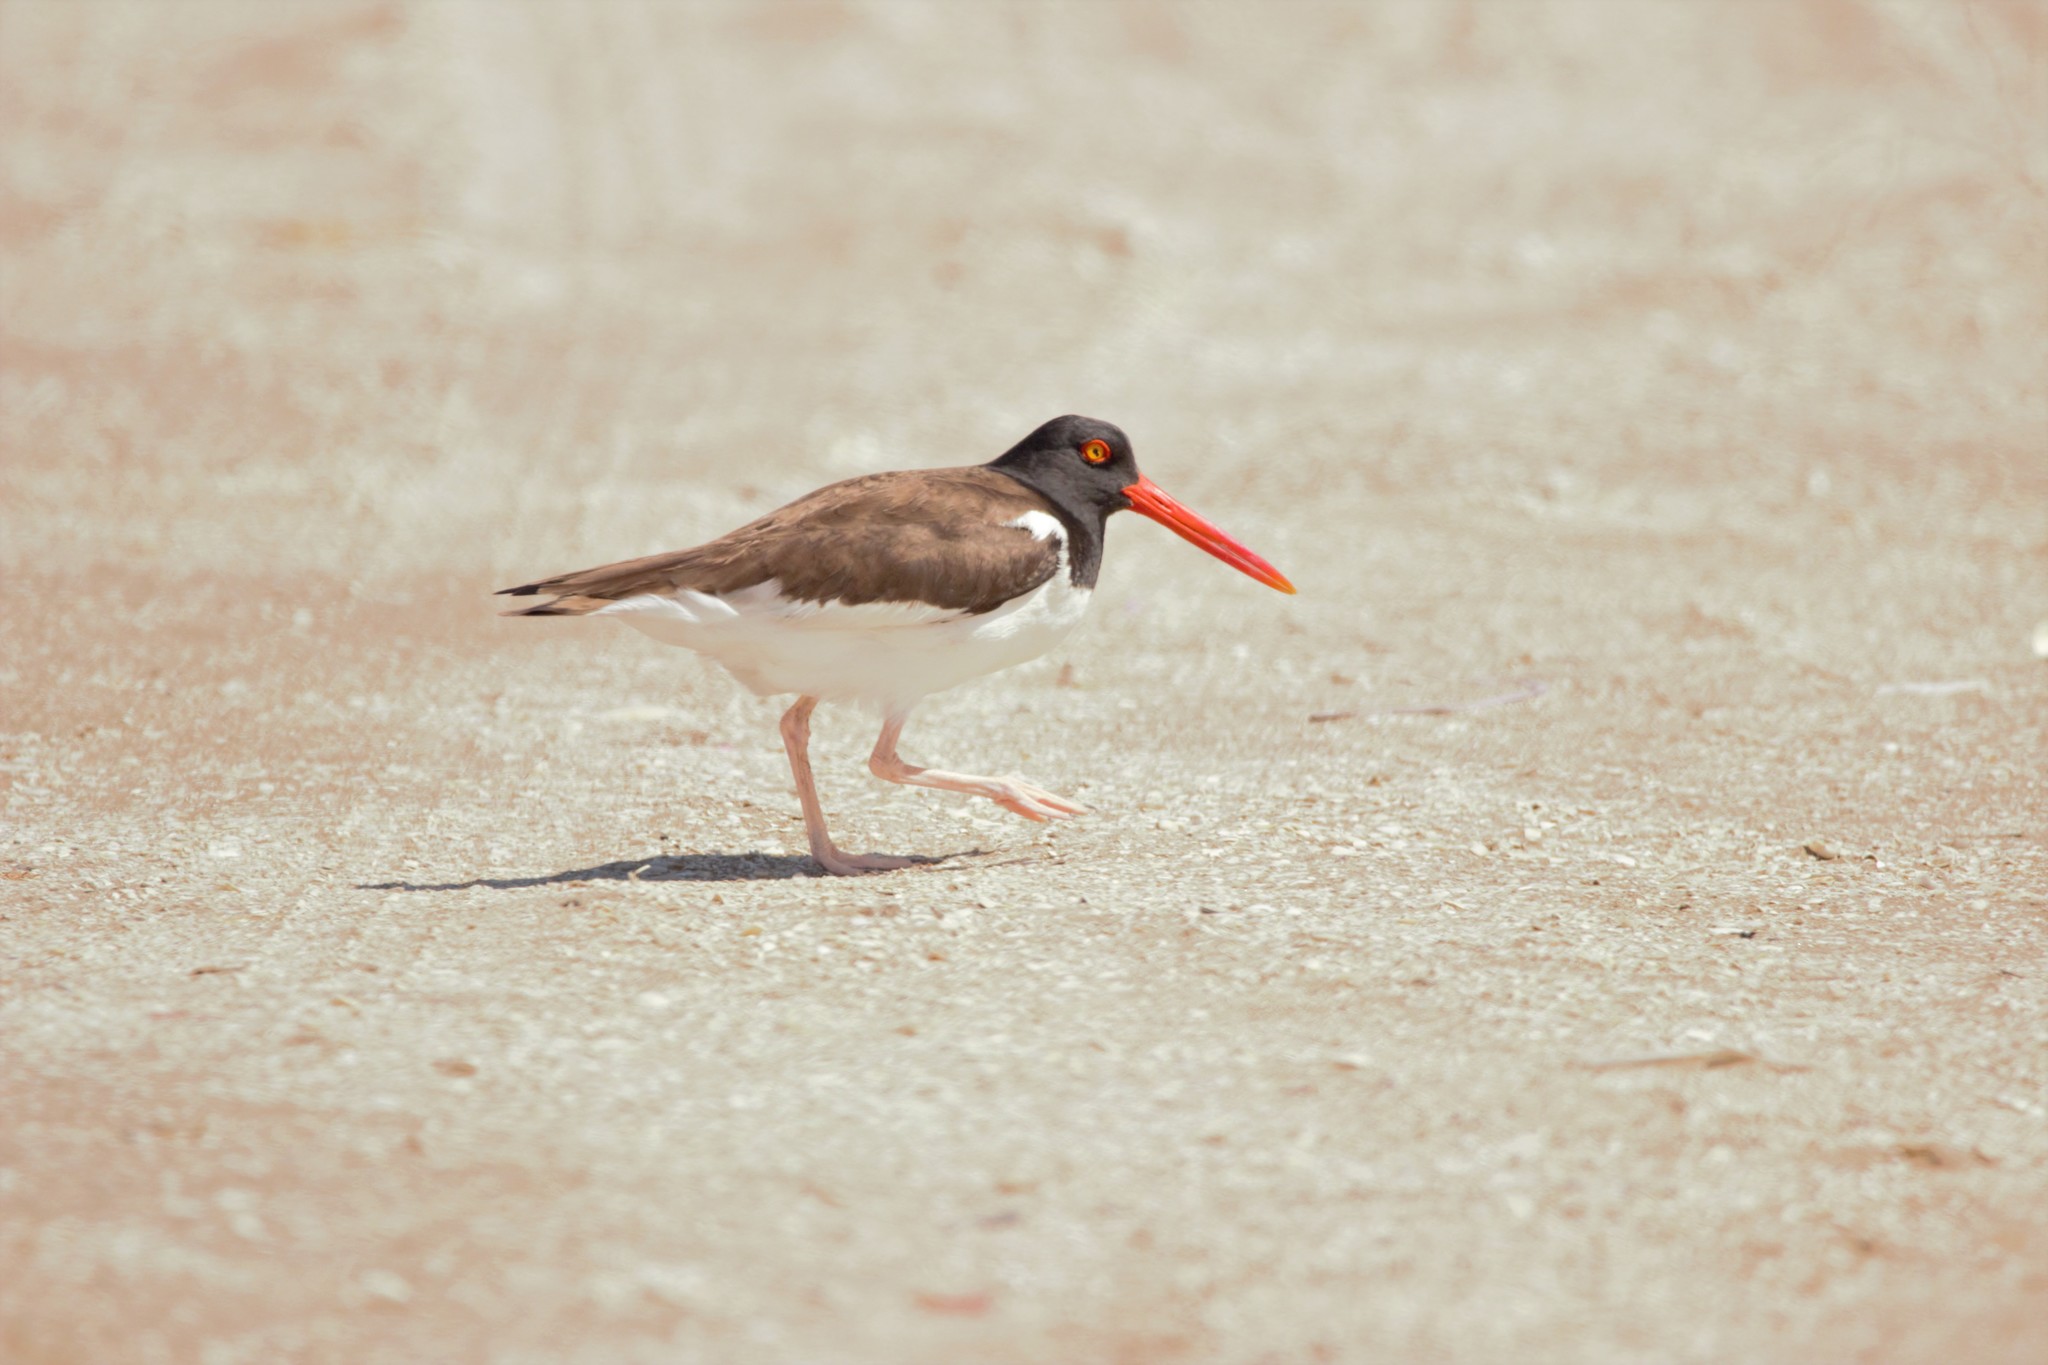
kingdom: Animalia
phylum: Chordata
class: Aves
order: Charadriiformes
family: Haematopodidae
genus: Haematopus
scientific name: Haematopus palliatus
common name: American oystercatcher
